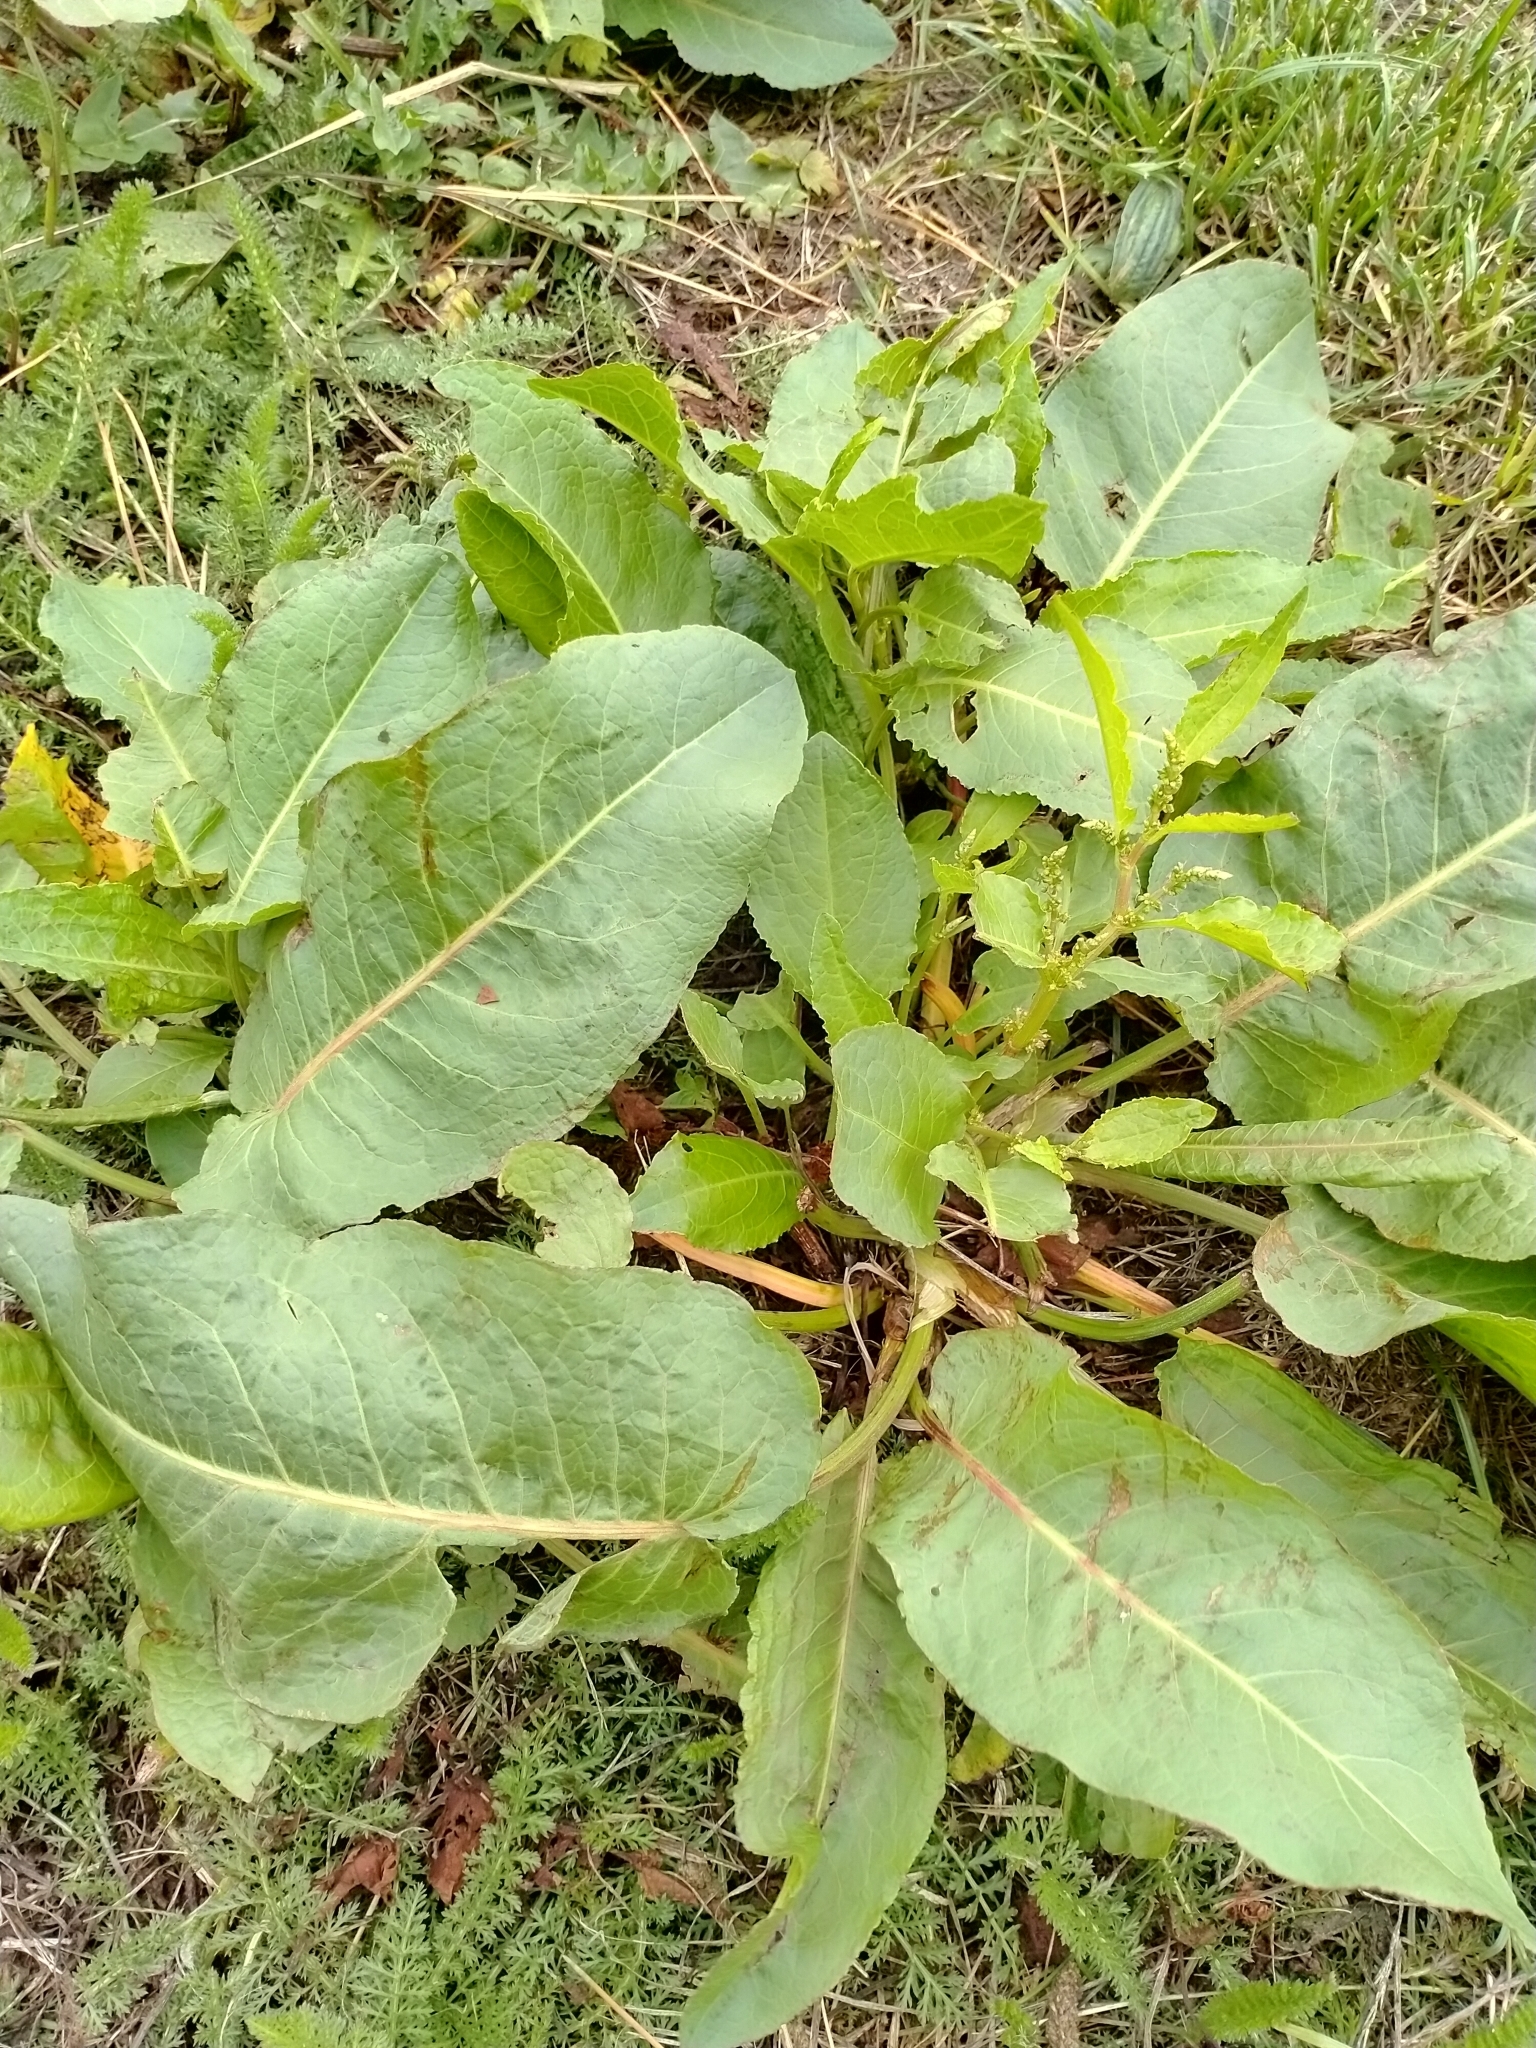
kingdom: Plantae
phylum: Tracheophyta
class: Magnoliopsida
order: Caryophyllales
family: Polygonaceae
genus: Rumex
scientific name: Rumex obtusifolius
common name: Bitter dock
